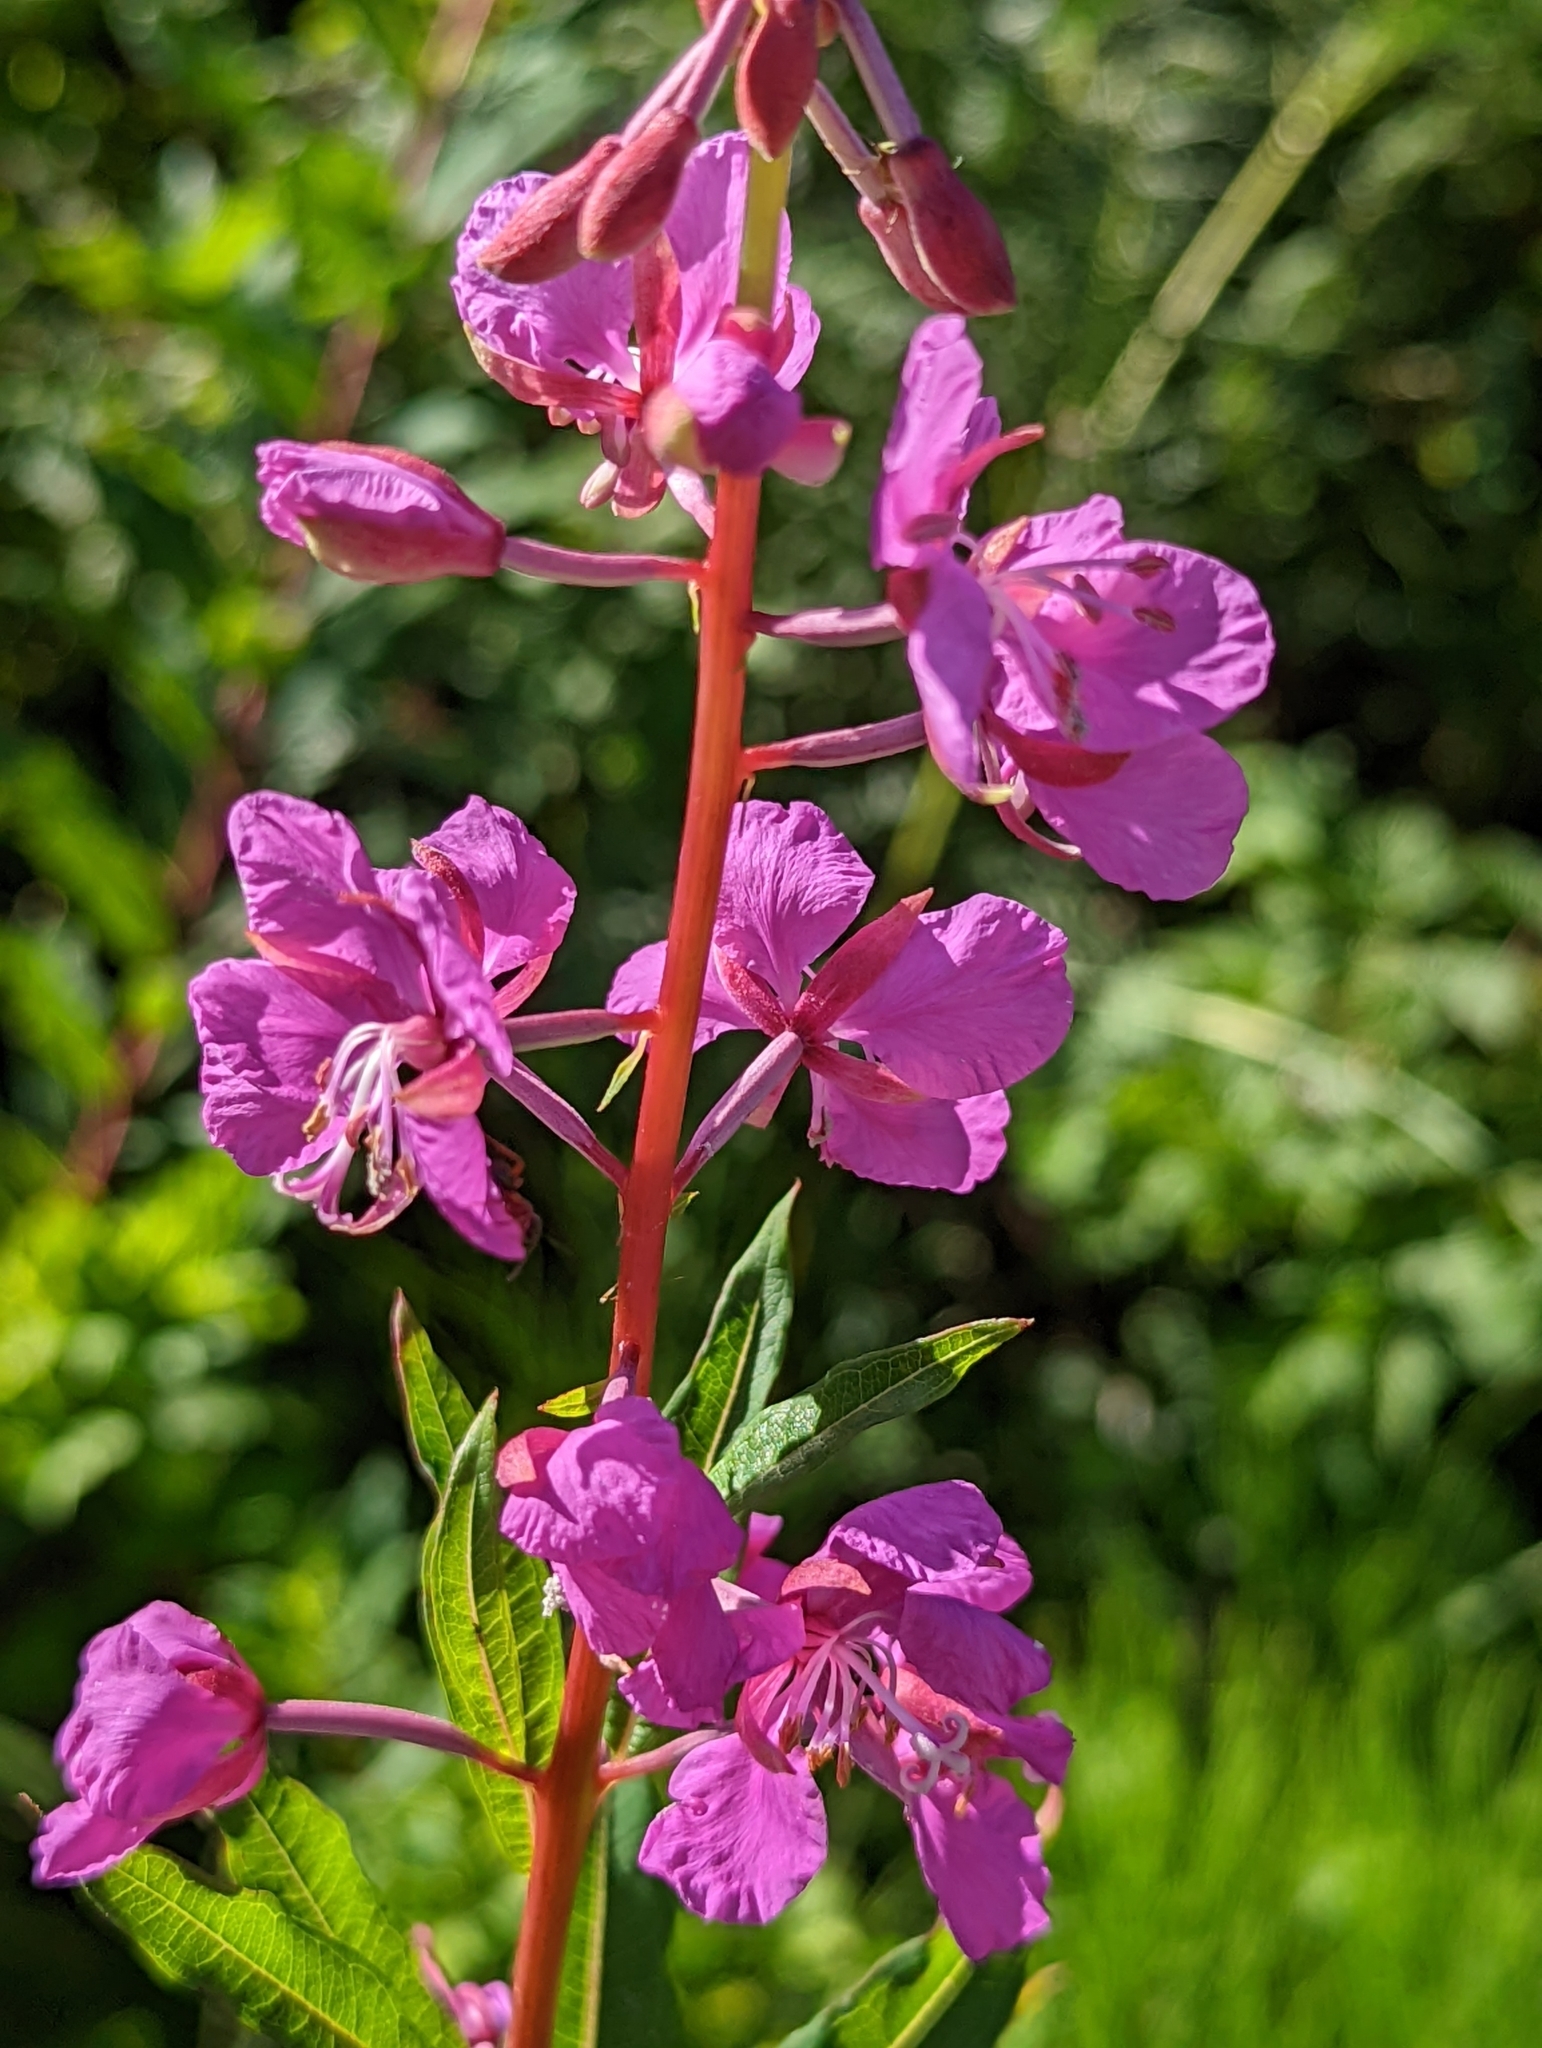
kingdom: Plantae
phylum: Tracheophyta
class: Magnoliopsida
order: Myrtales
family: Onagraceae
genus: Chamaenerion
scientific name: Chamaenerion angustifolium
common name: Fireweed
